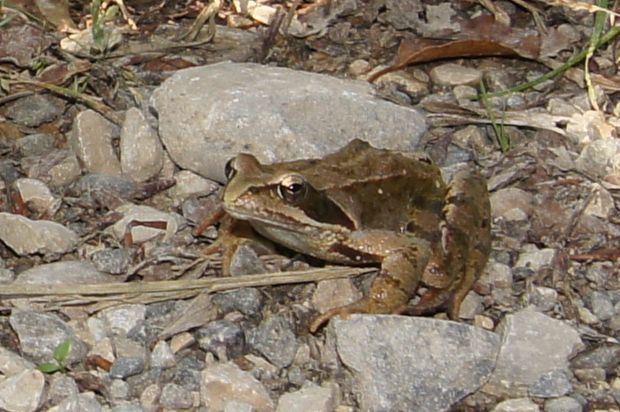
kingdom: Animalia
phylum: Chordata
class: Amphibia
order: Anura
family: Ranidae
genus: Rana
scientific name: Rana temporaria
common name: Common frog
